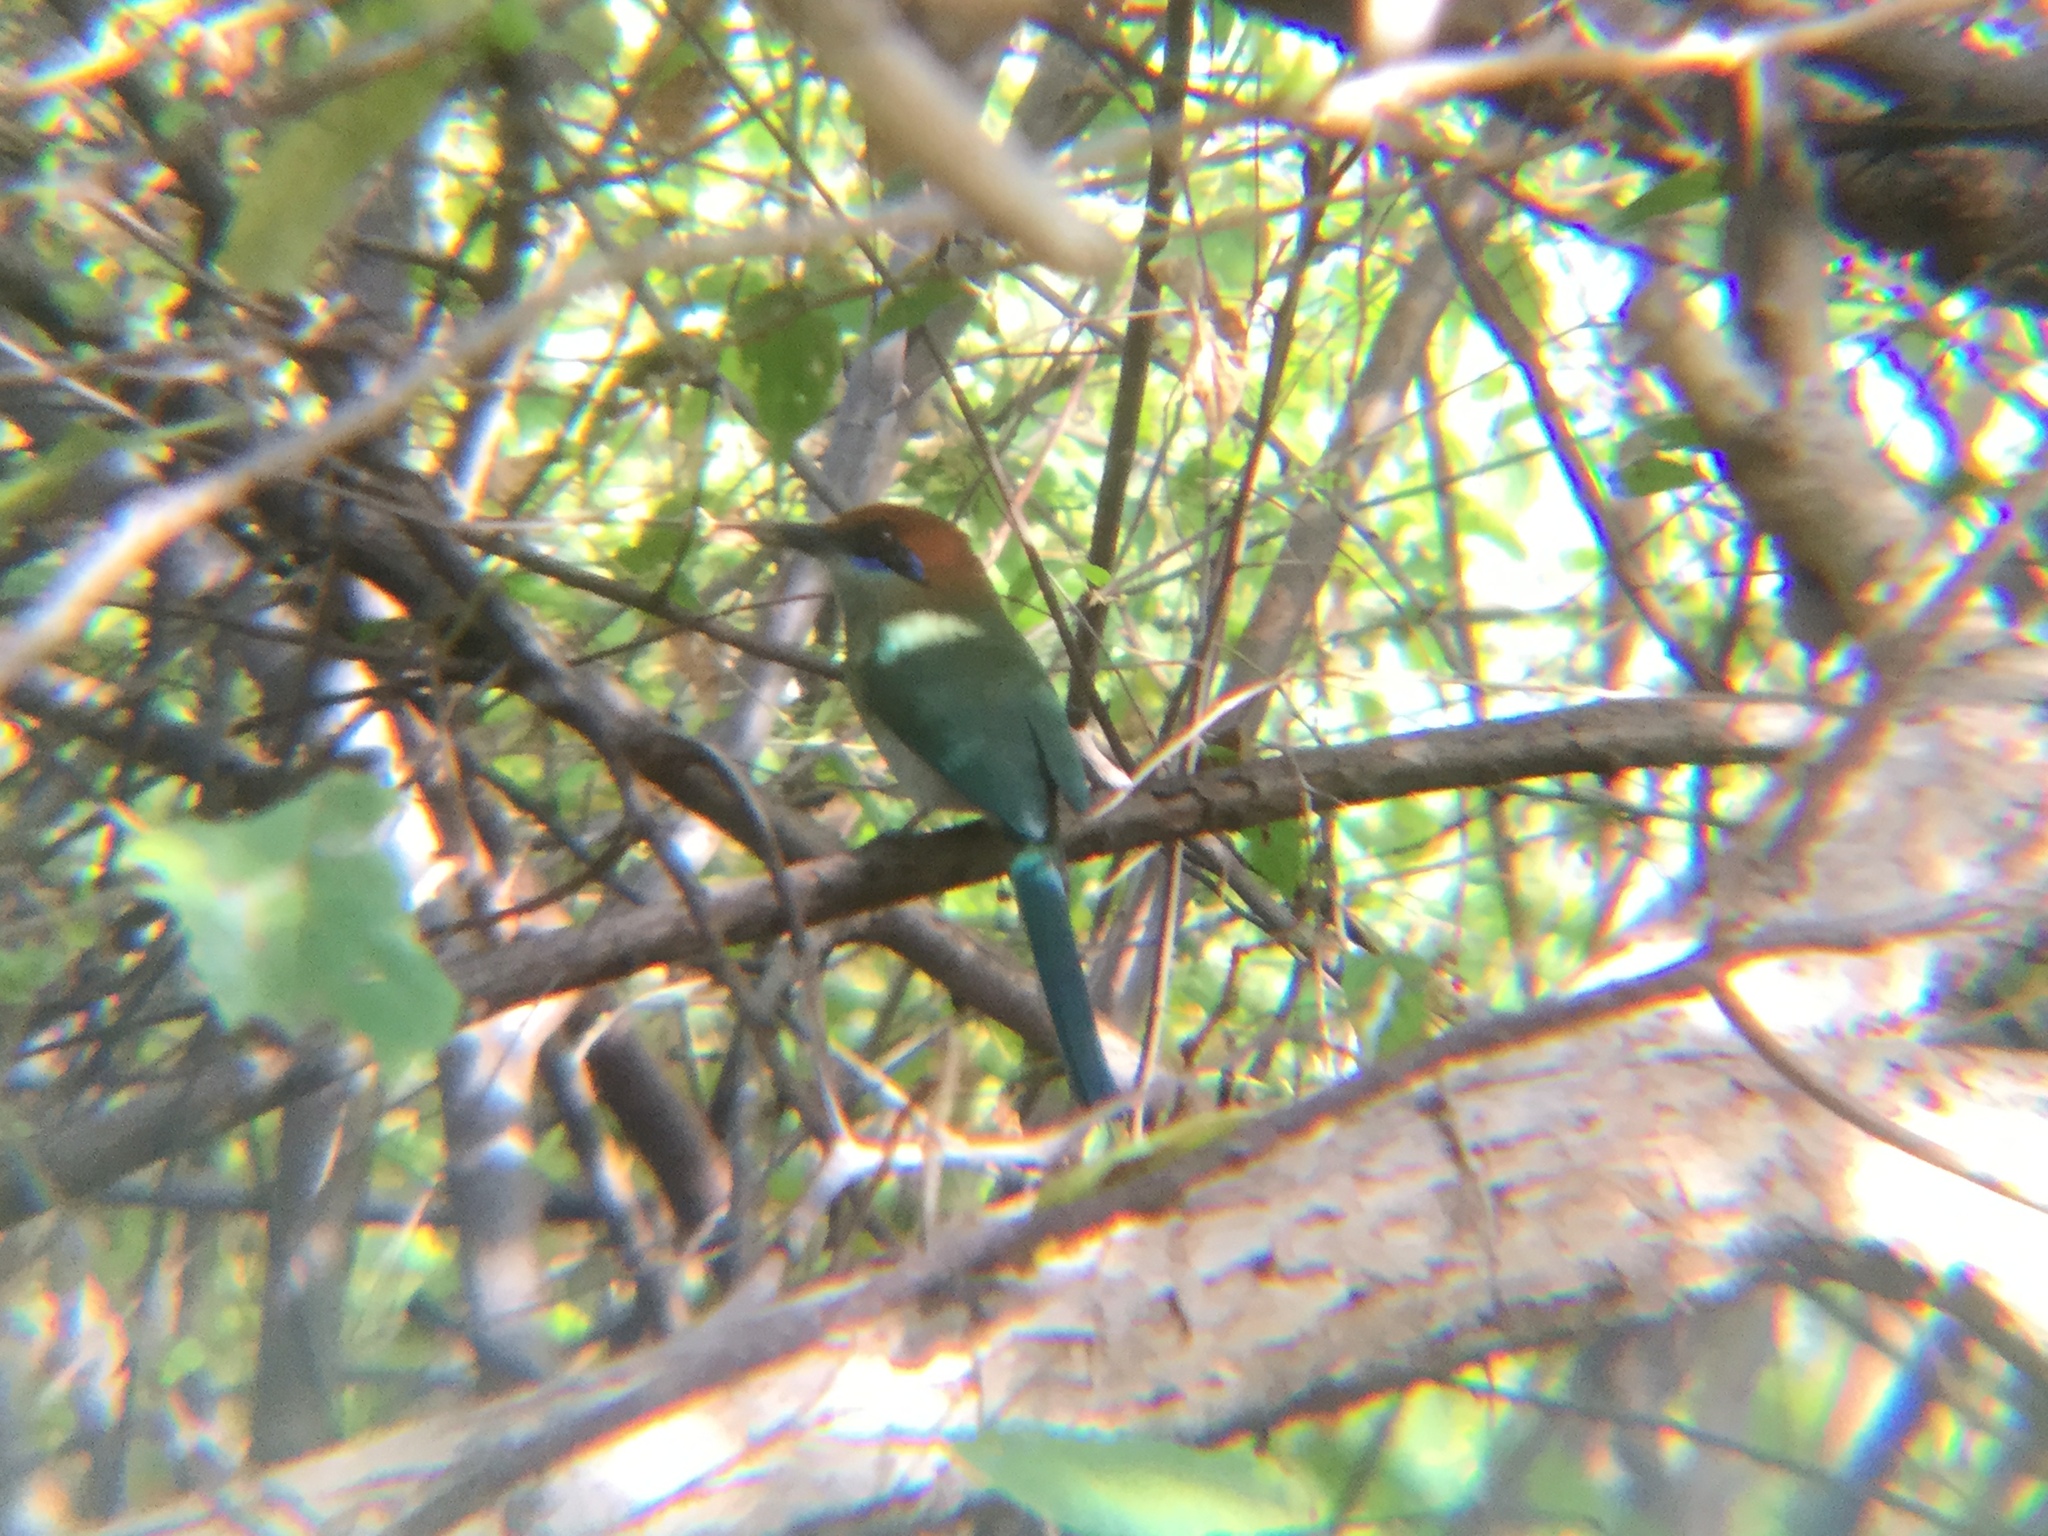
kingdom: Animalia
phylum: Chordata
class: Aves
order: Coraciiformes
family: Momotidae
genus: Momotus
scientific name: Momotus mexicanus
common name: Russet-crowned motmot
